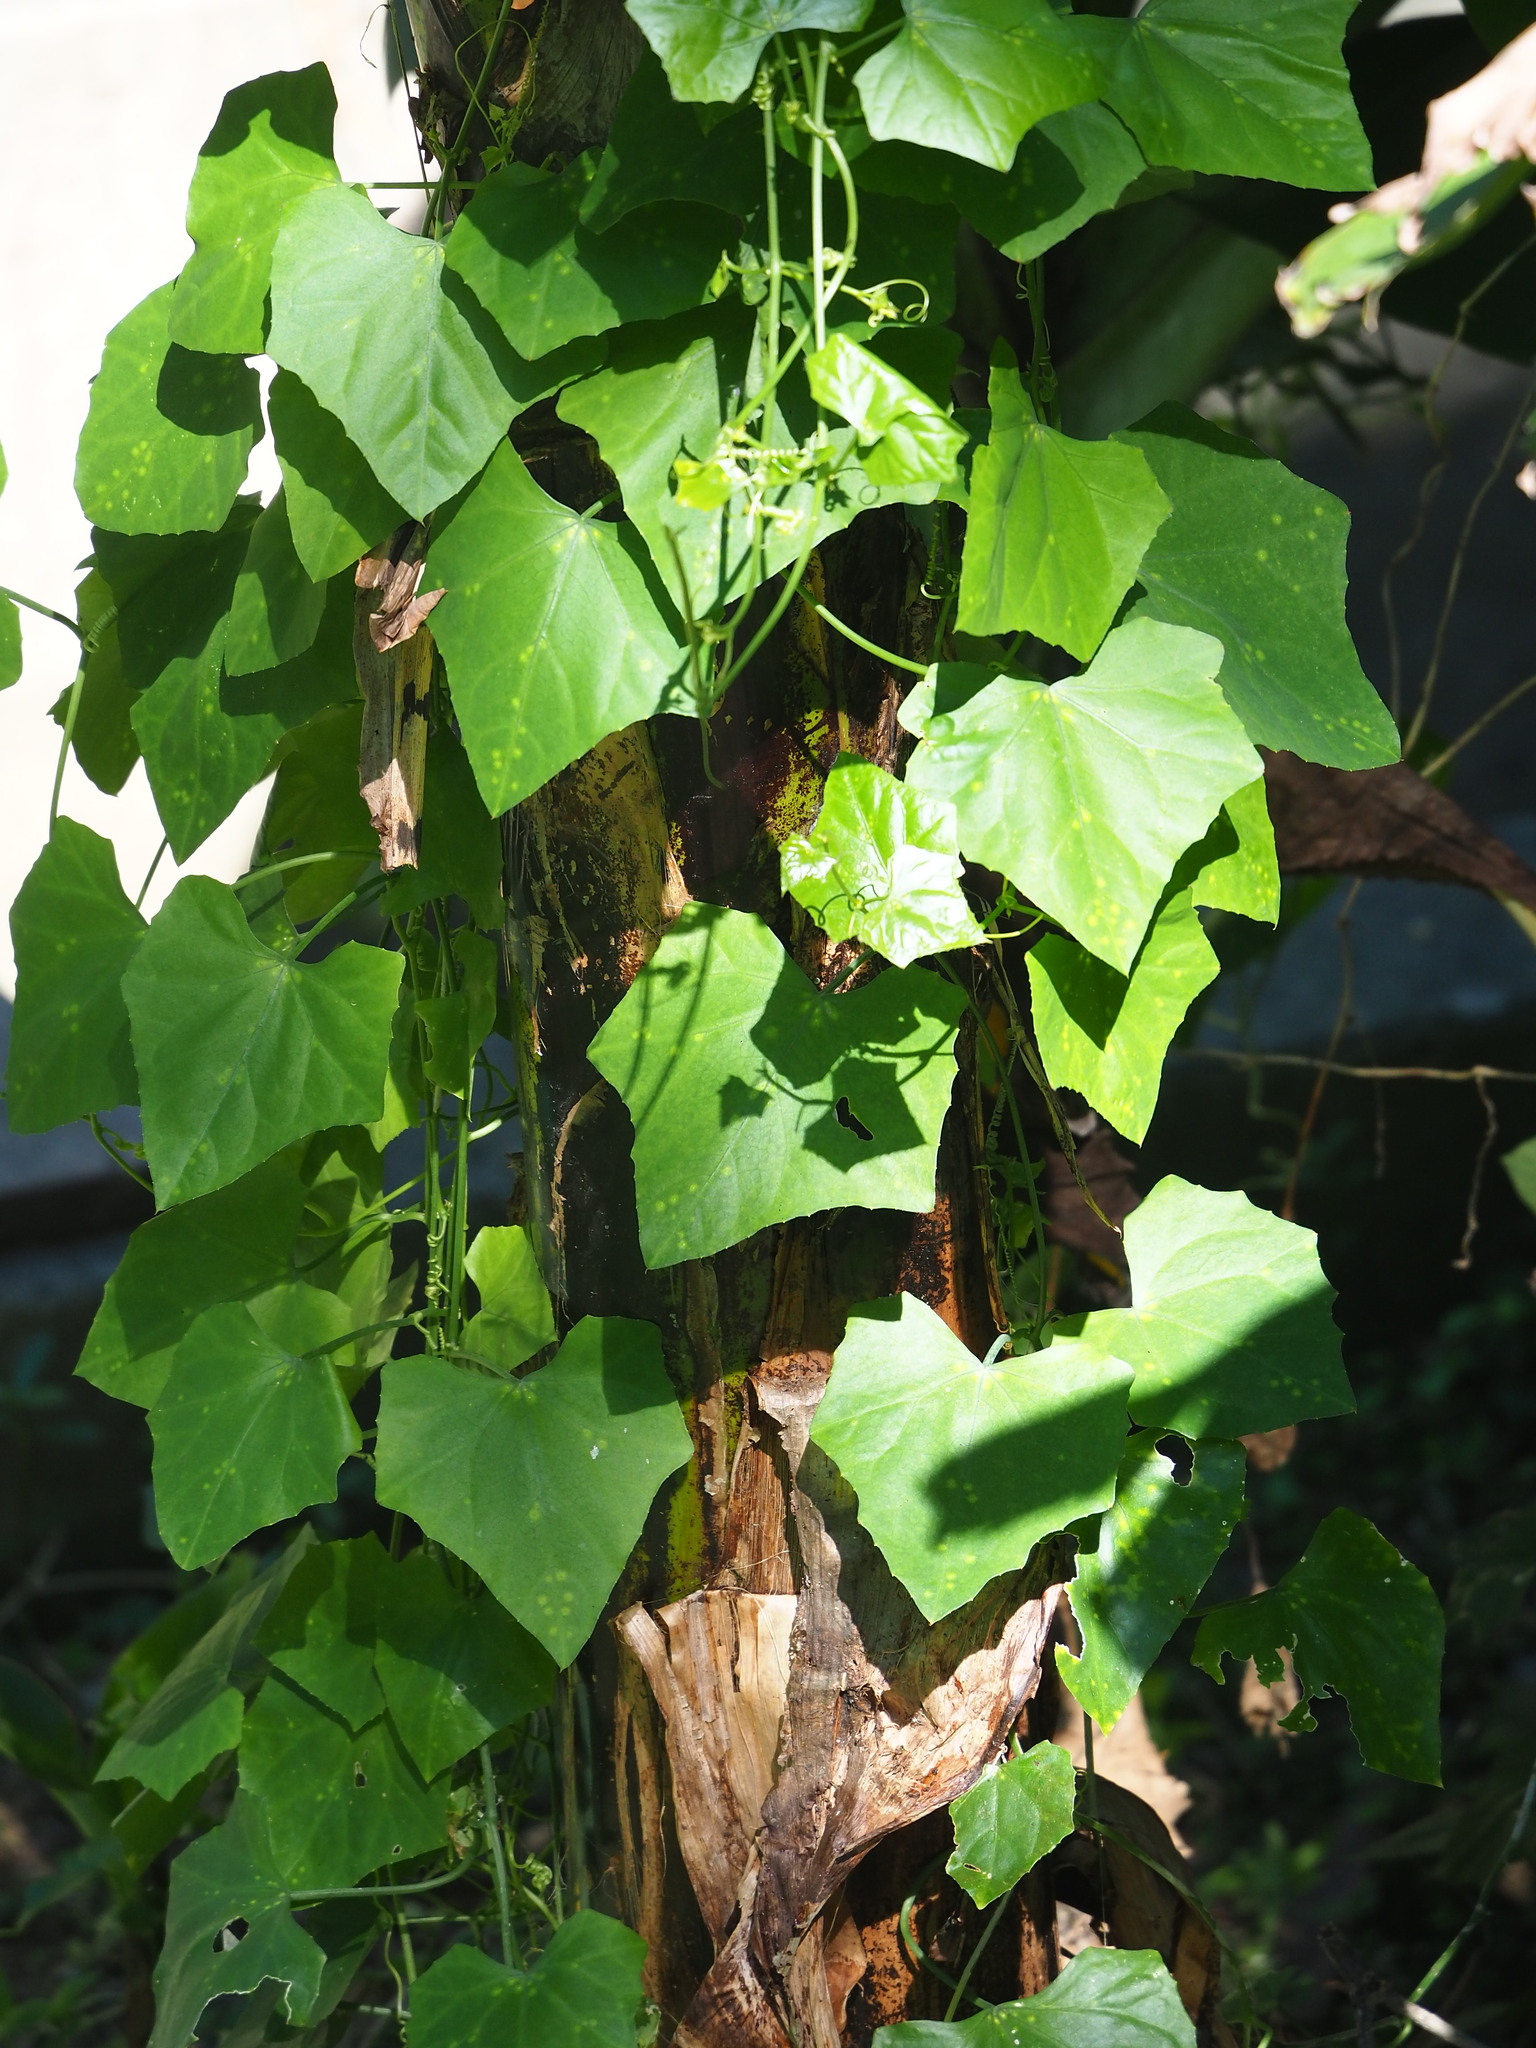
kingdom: Plantae
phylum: Tracheophyta
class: Magnoliopsida
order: Cucurbitales
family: Cucurbitaceae
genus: Coccinia
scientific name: Coccinia grandis
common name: Ivy gourd
